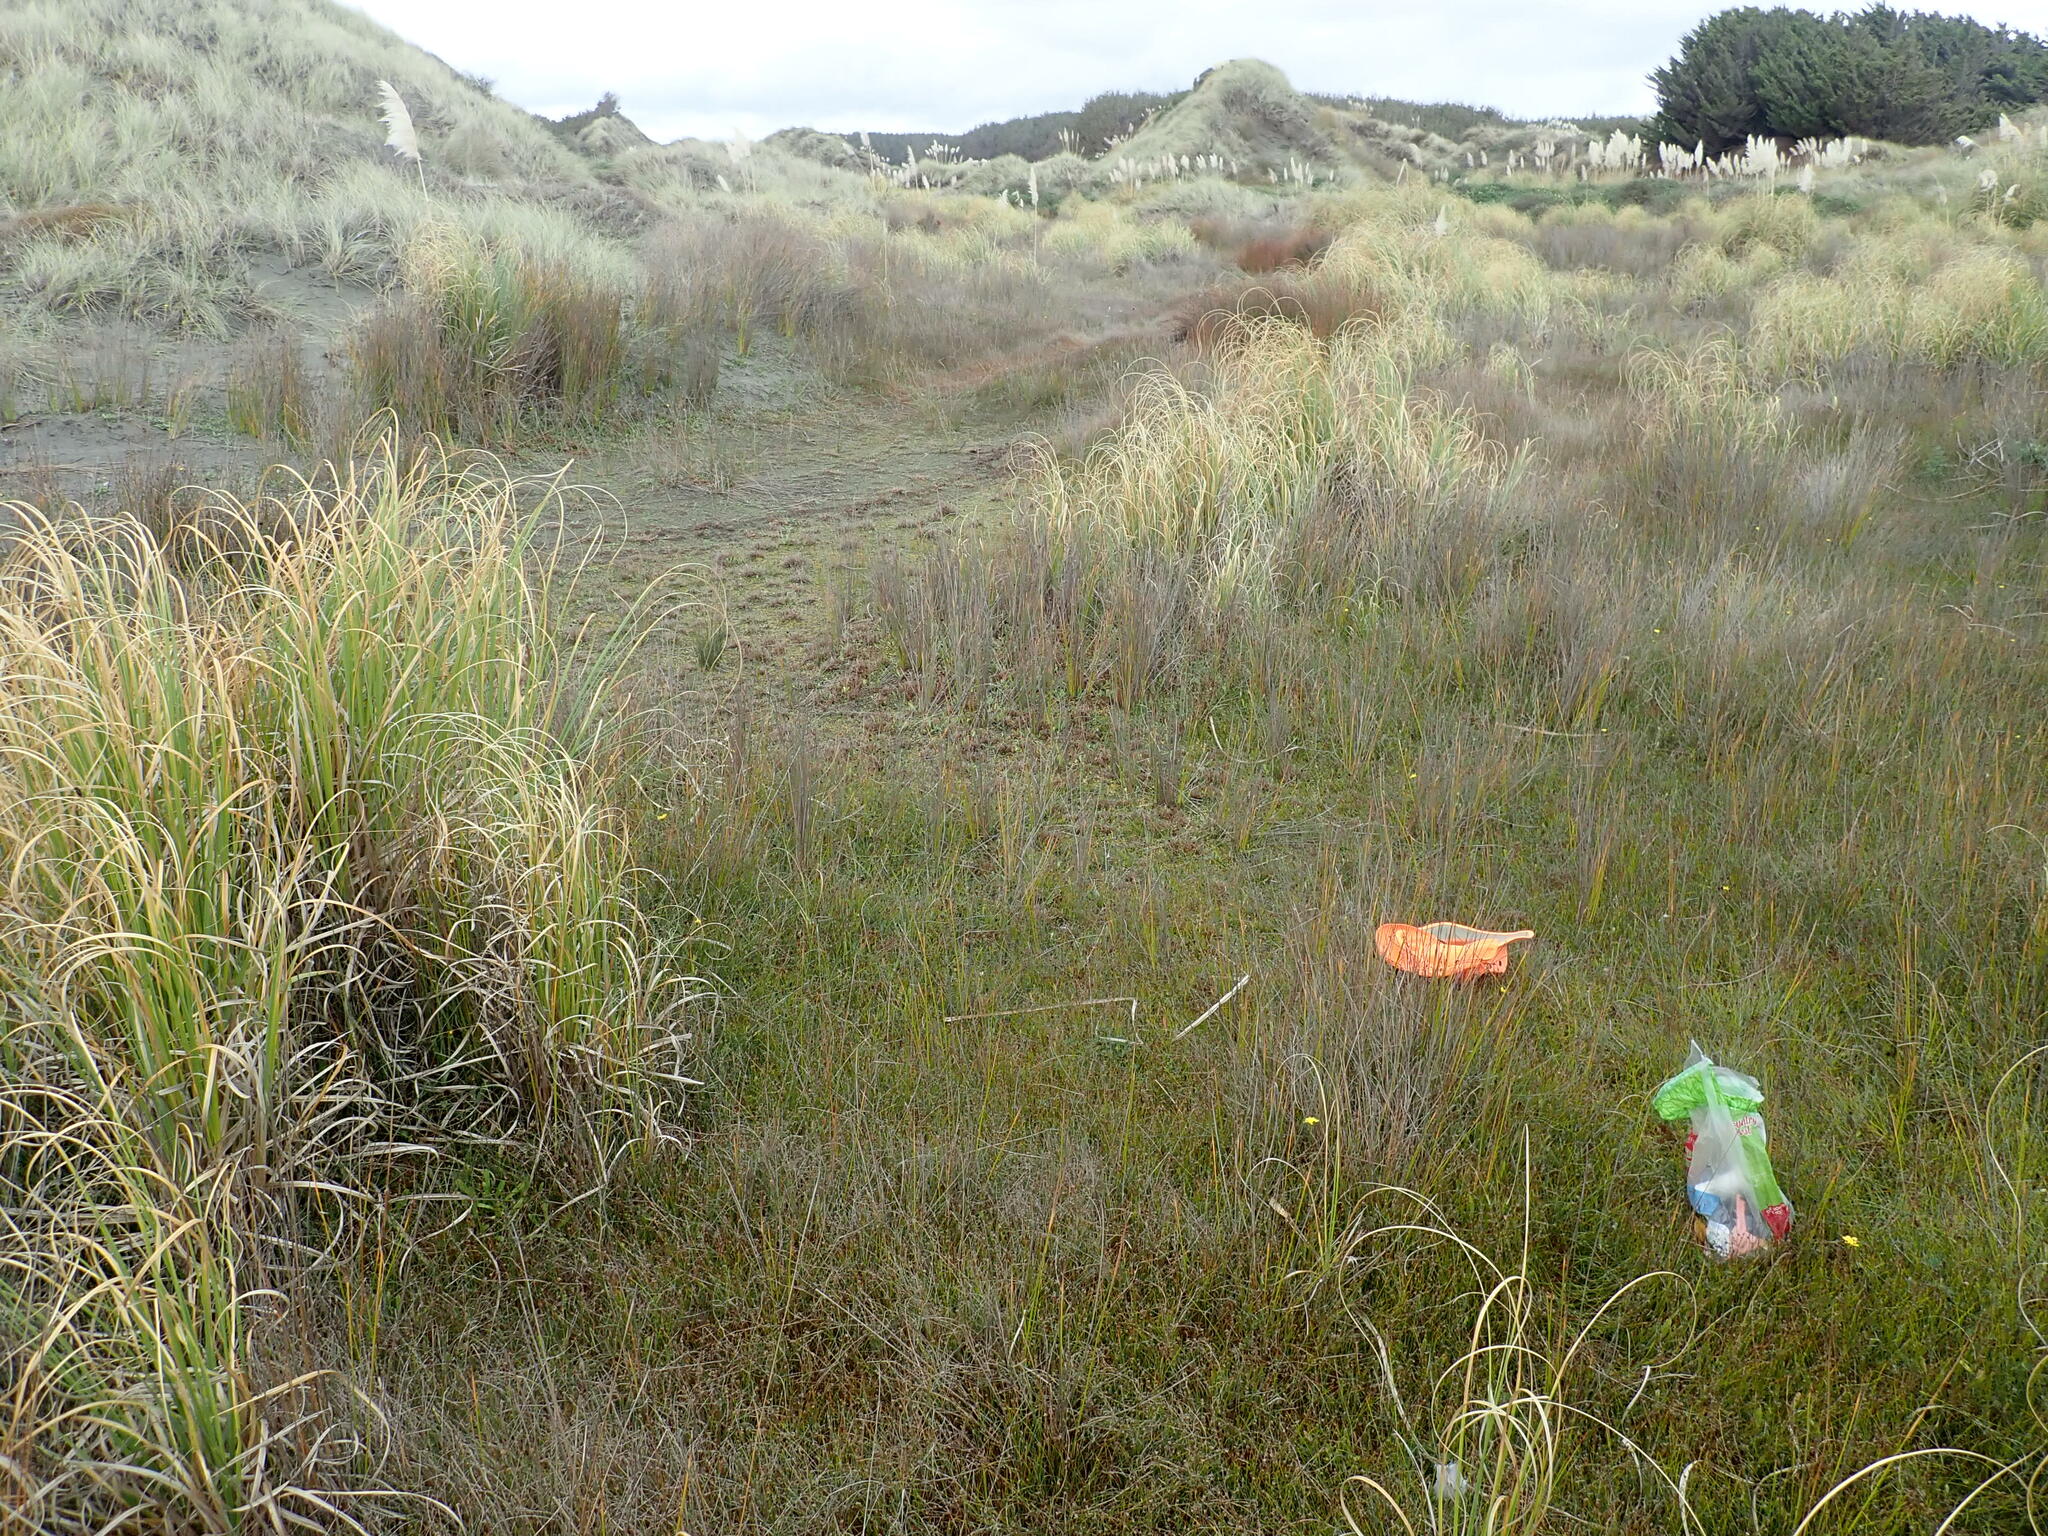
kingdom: Plantae
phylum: Tracheophyta
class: Liliopsida
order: Poales
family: Juncaceae
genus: Juncus
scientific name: Juncus caespiticius
